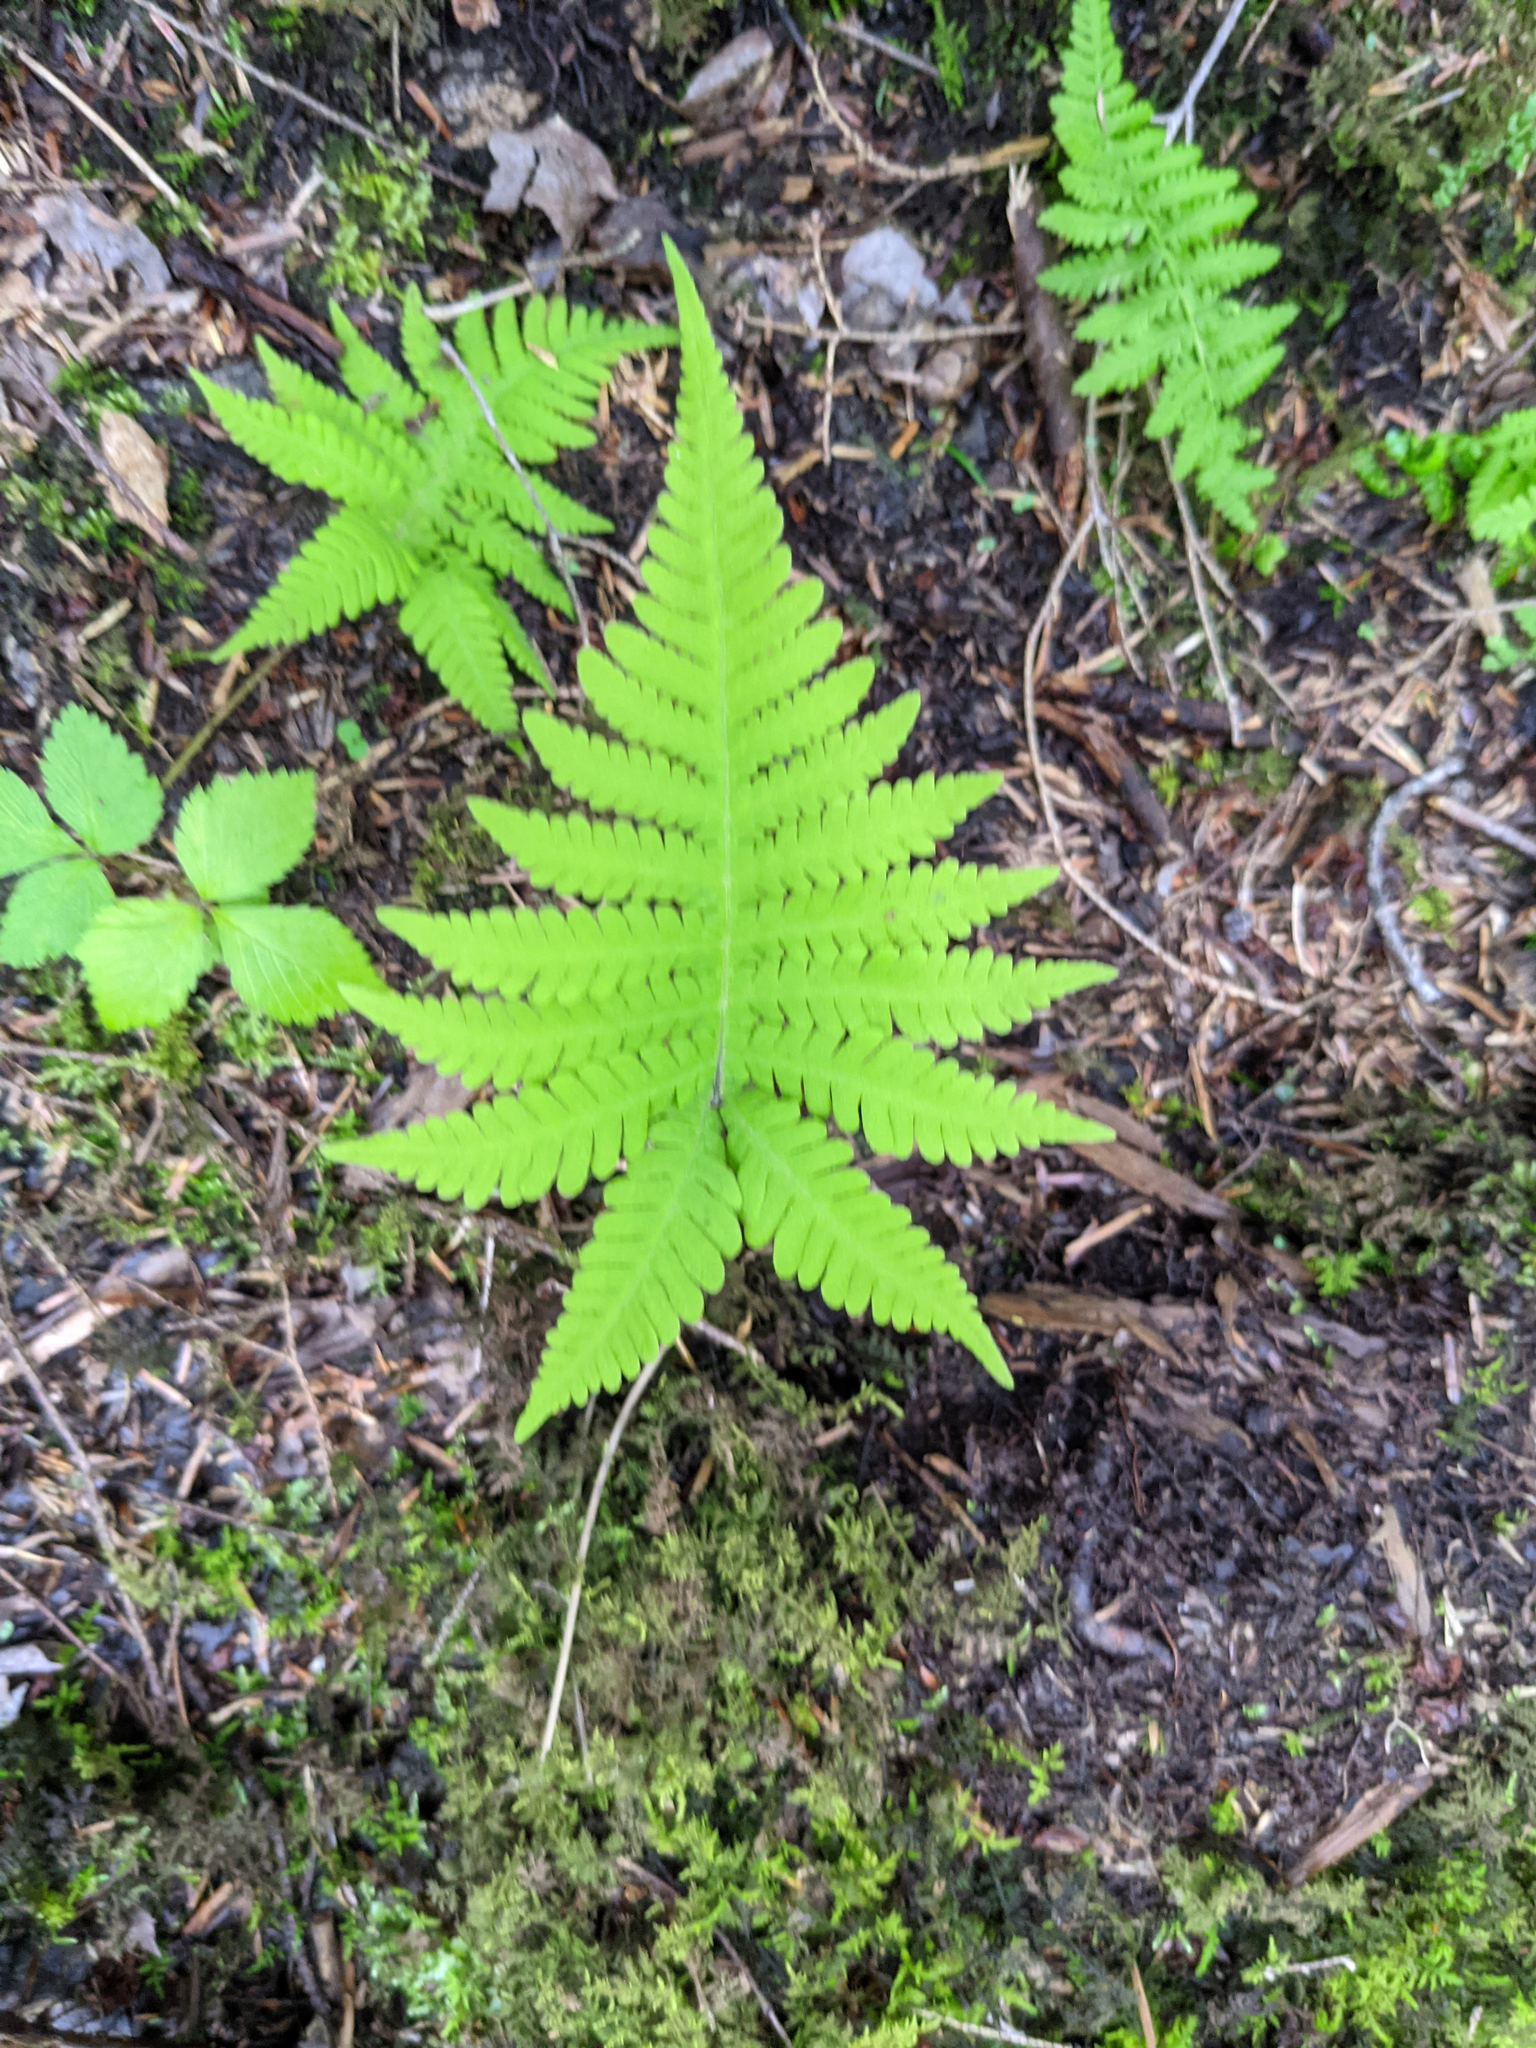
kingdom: Plantae
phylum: Tracheophyta
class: Polypodiopsida
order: Polypodiales
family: Thelypteridaceae
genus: Phegopteris
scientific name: Phegopteris connectilis
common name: Beech fern
